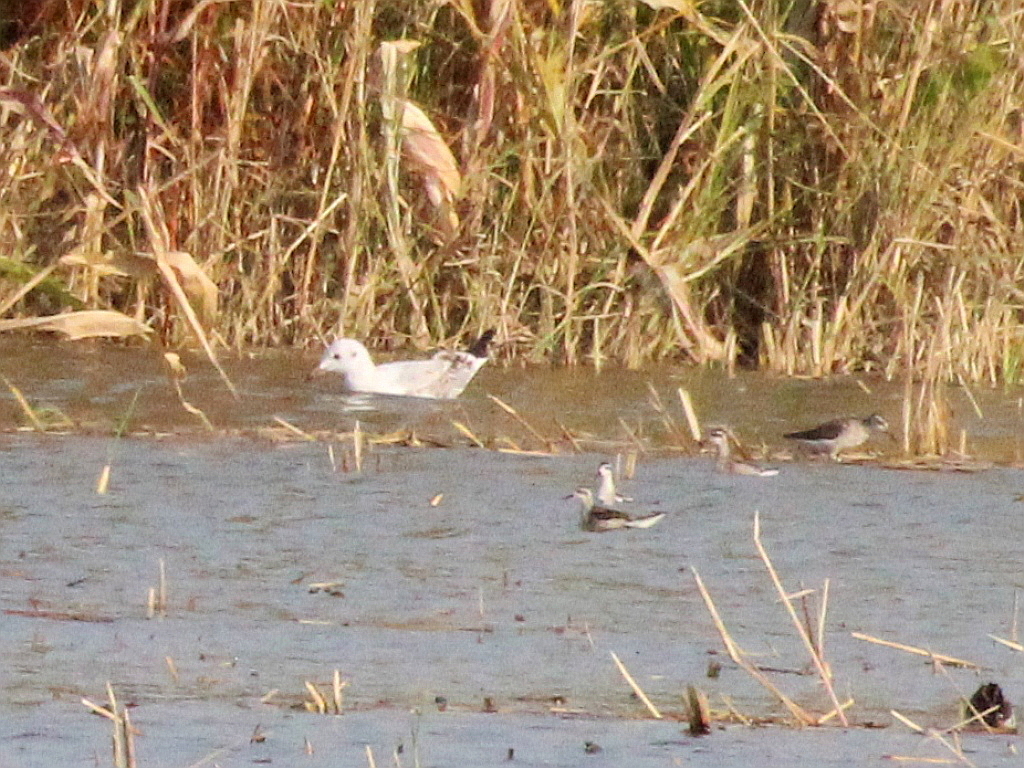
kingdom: Animalia
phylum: Chordata
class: Aves
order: Charadriiformes
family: Scolopacidae
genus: Phalaropus
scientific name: Phalaropus lobatus
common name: Red-necked phalarope
